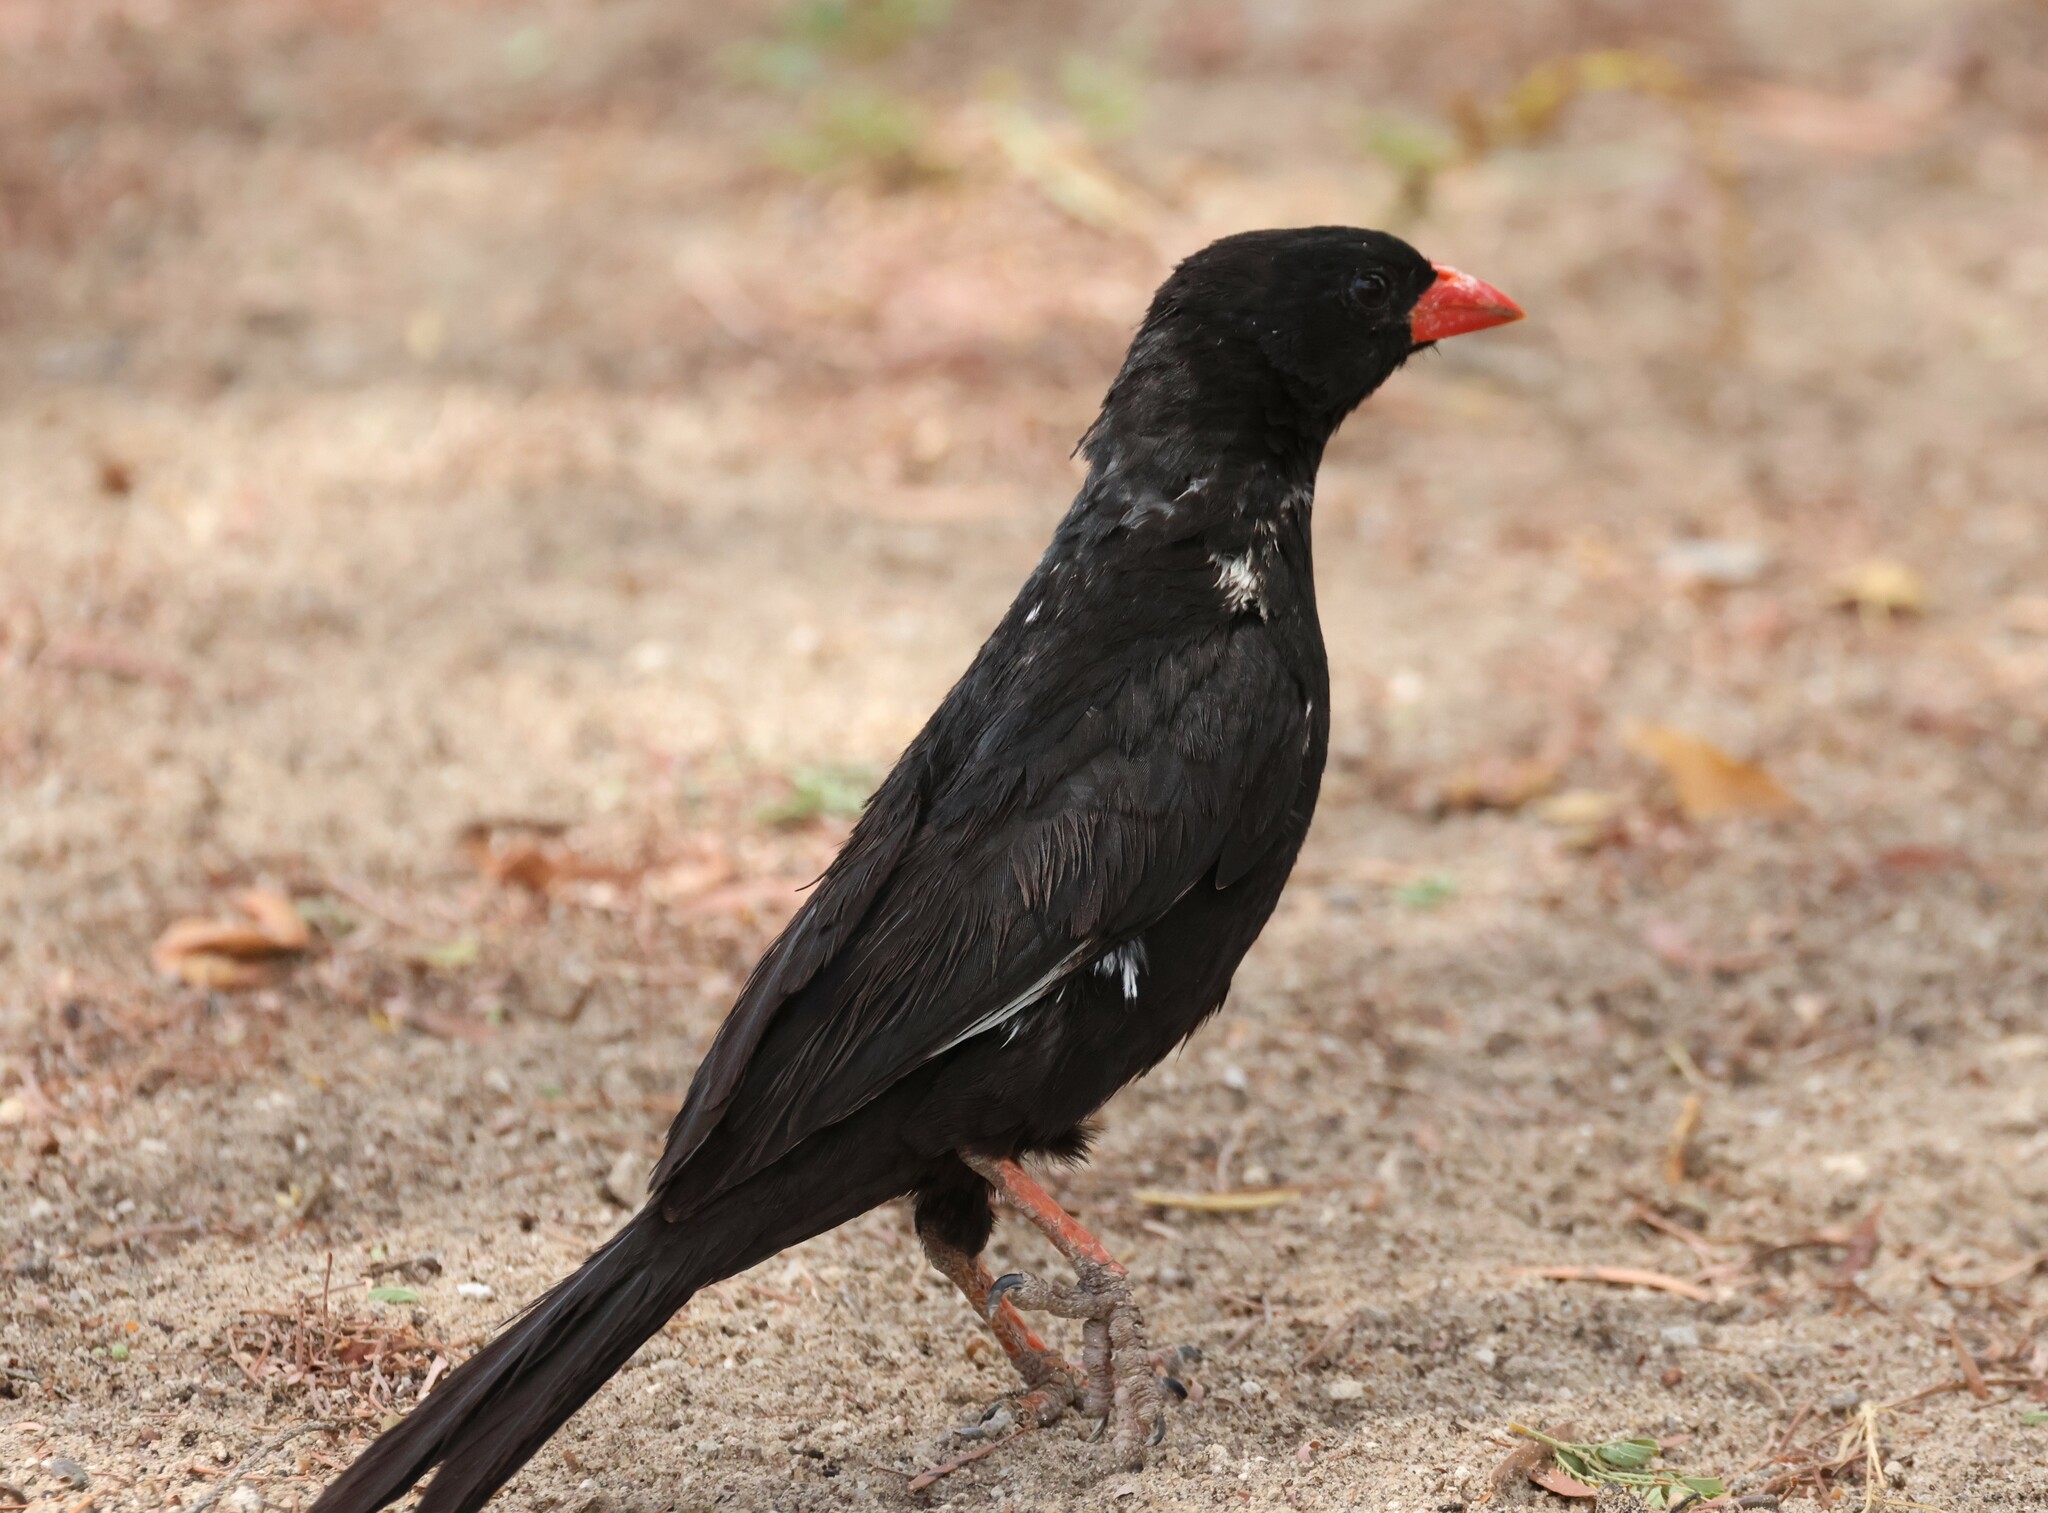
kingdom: Animalia
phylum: Chordata
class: Aves
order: Passeriformes
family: Ploceidae
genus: Bubalornis
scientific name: Bubalornis niger
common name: Red-billed buffalo weaver
